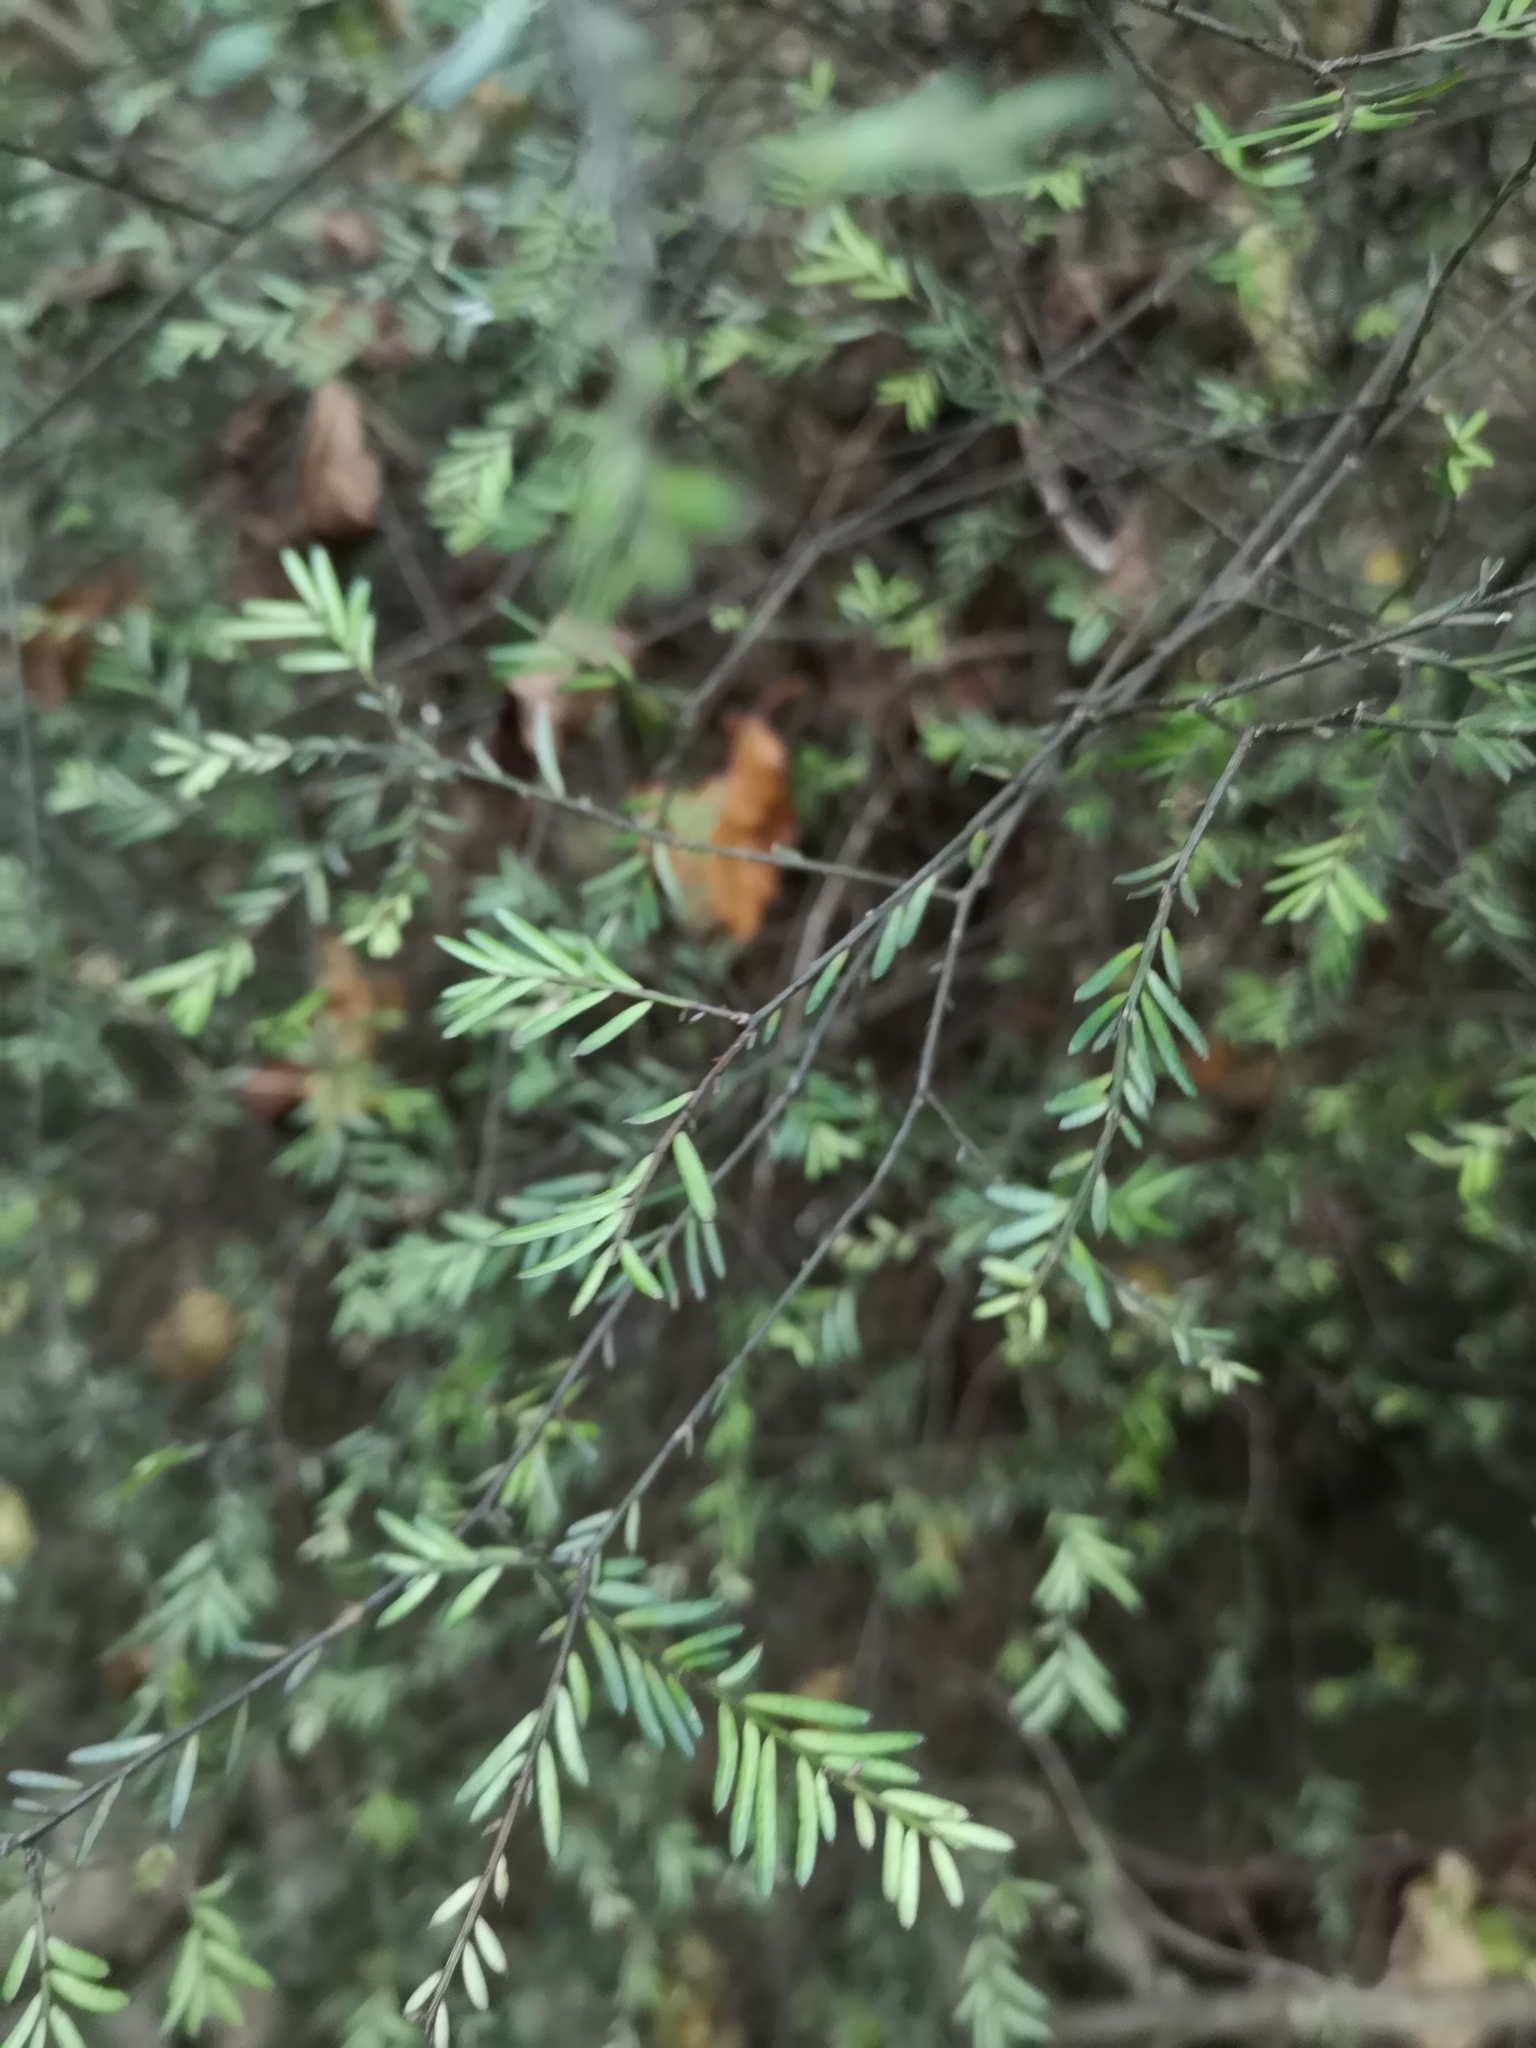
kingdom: Plantae
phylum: Tracheophyta
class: Pinopsida
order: Pinales
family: Podocarpaceae
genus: Prumnopitys
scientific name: Prumnopitys taxifolia
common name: Matai
